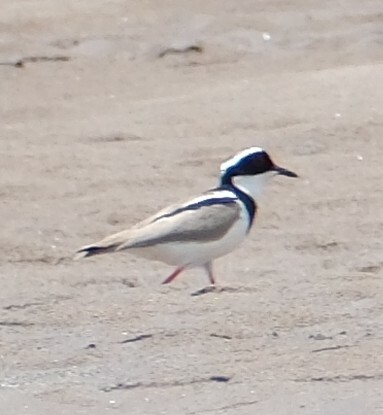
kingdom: Animalia
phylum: Chordata
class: Aves
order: Charadriiformes
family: Charadriidae
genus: Hoploxypterus
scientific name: Hoploxypterus cayanus
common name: Pied plover
